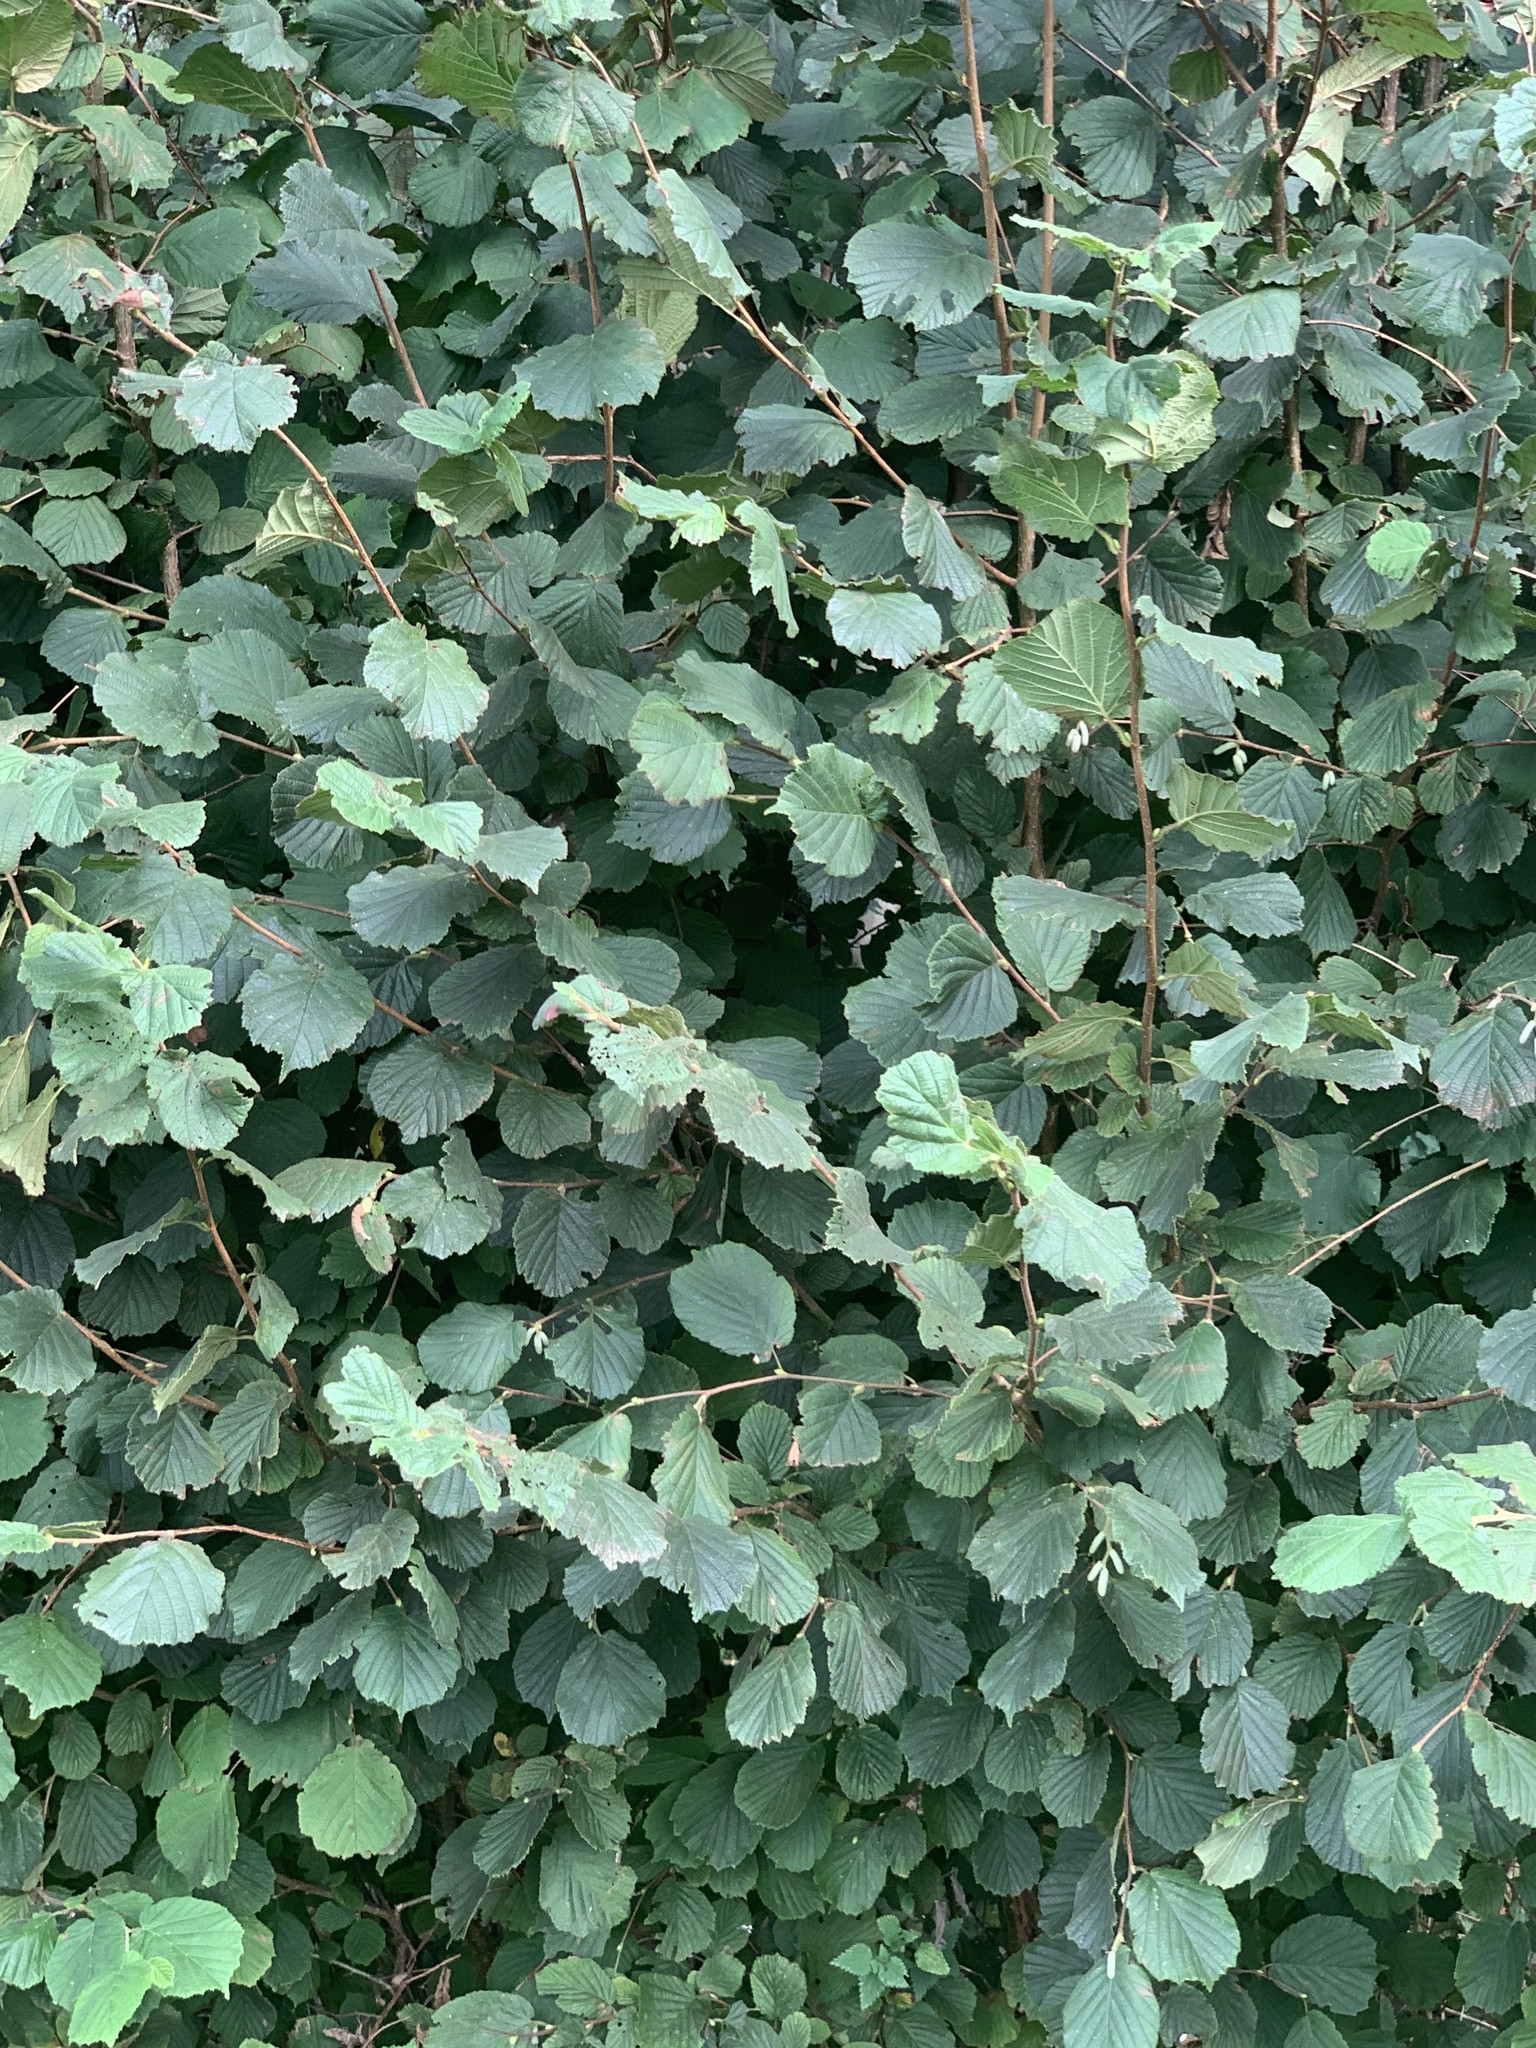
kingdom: Plantae
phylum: Tracheophyta
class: Magnoliopsida
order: Fagales
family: Betulaceae
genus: Corylus
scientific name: Corylus avellana
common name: European hazel
